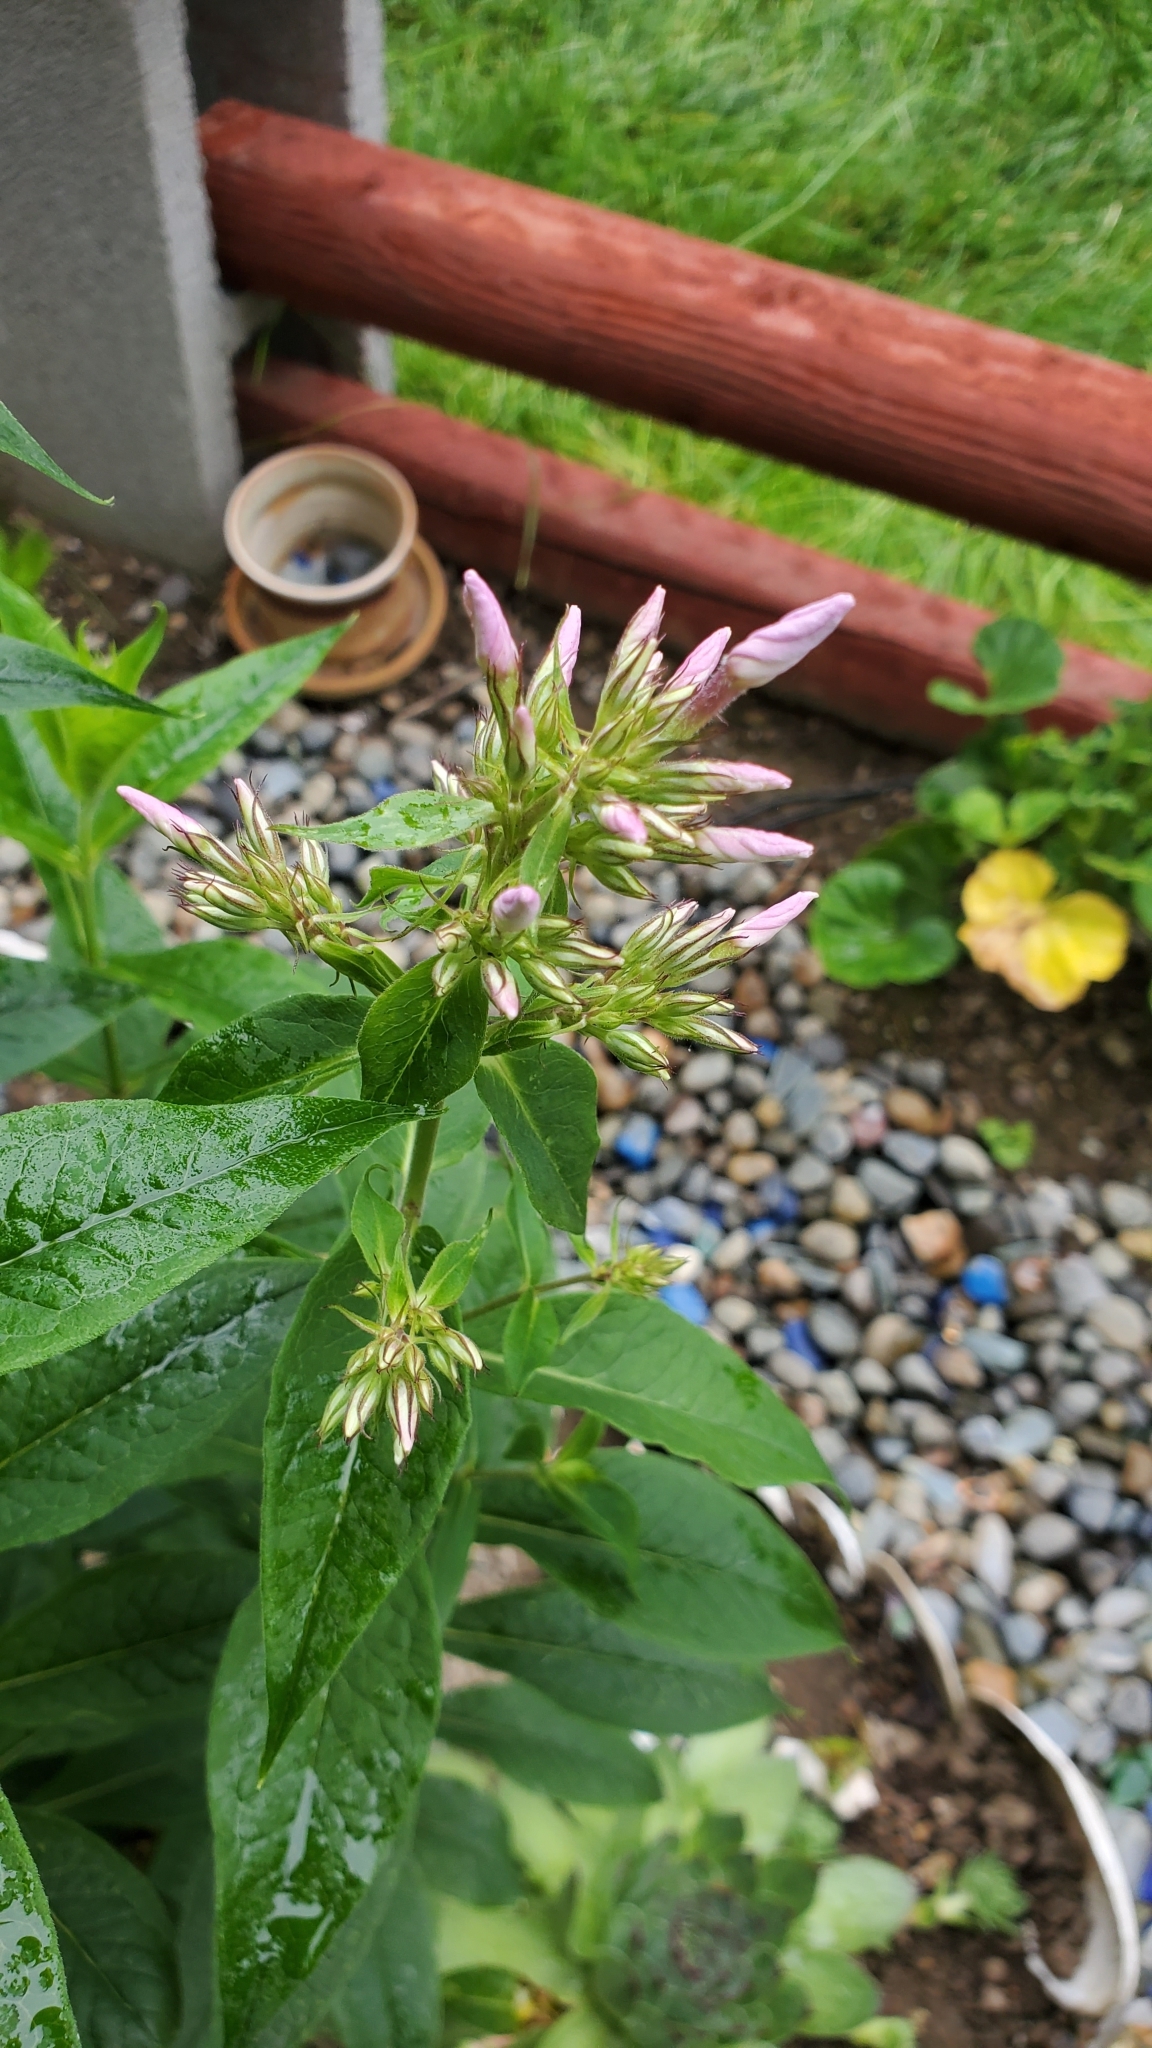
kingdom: Plantae
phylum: Tracheophyta
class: Magnoliopsida
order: Ericales
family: Polemoniaceae
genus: Phlox
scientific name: Phlox paniculata
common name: Fall phlox
